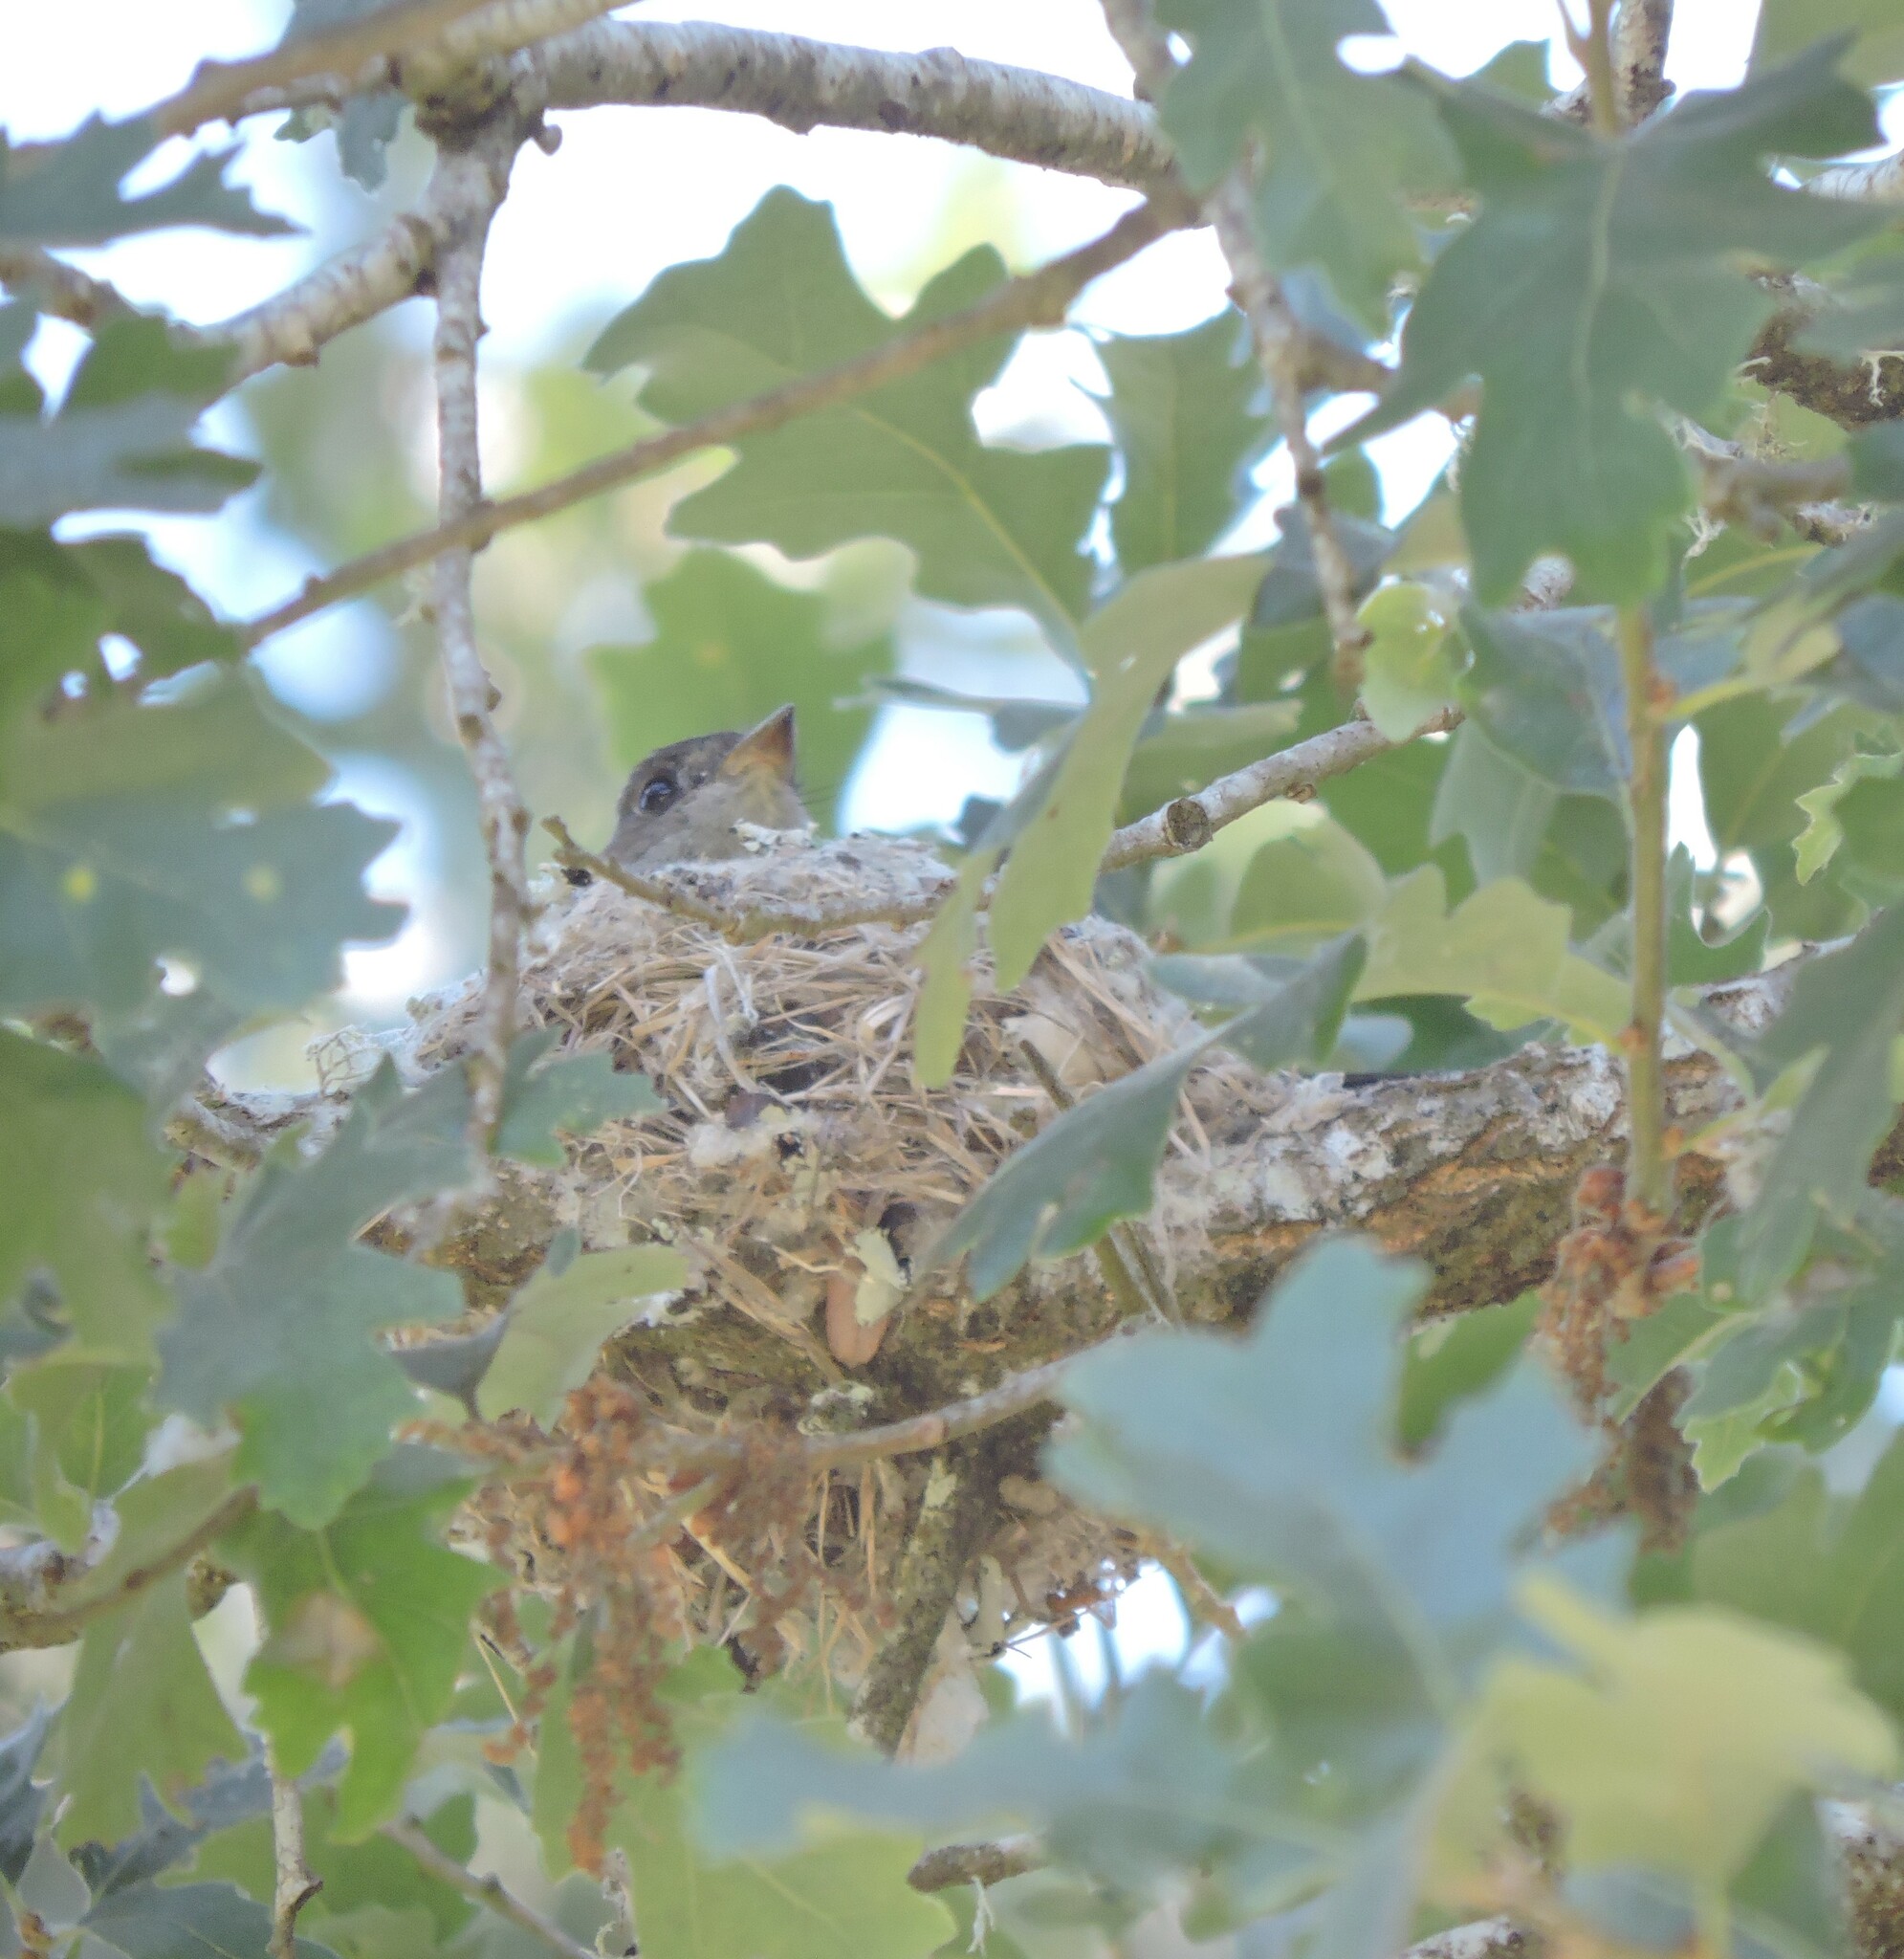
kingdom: Animalia
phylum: Chordata
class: Aves
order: Passeriformes
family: Tyrannidae
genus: Contopus
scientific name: Contopus sordidulus
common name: Western wood-pewee
